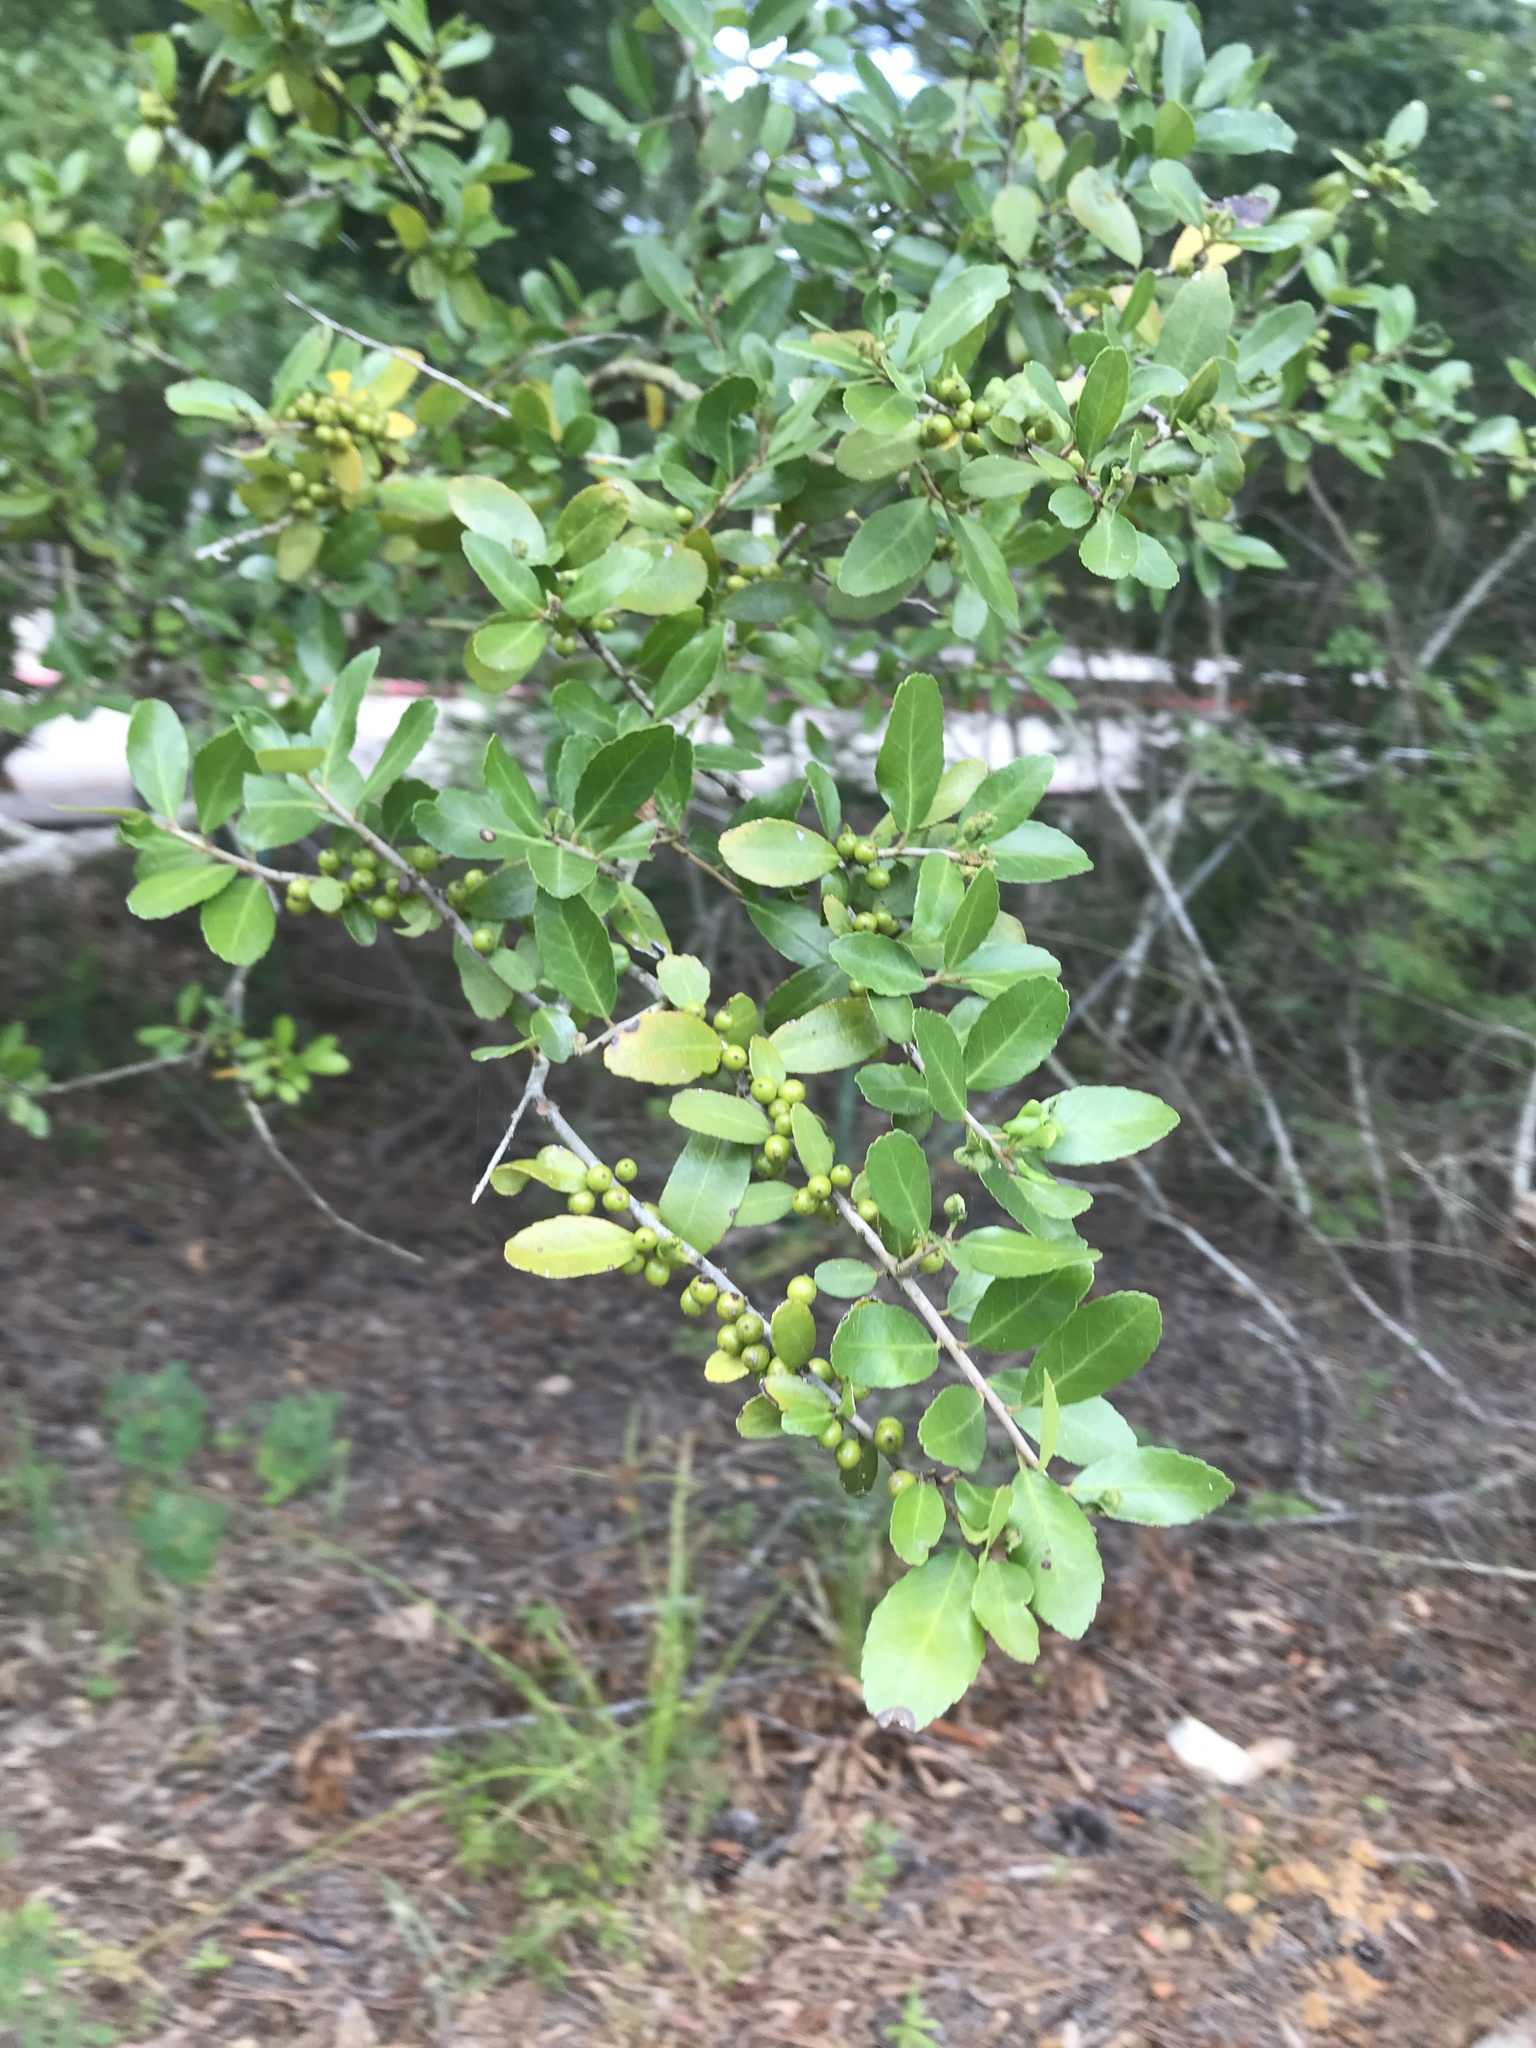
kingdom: Plantae
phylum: Tracheophyta
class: Magnoliopsida
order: Aquifoliales
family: Aquifoliaceae
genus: Ilex
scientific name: Ilex vomitoria
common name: Yaupon holly
